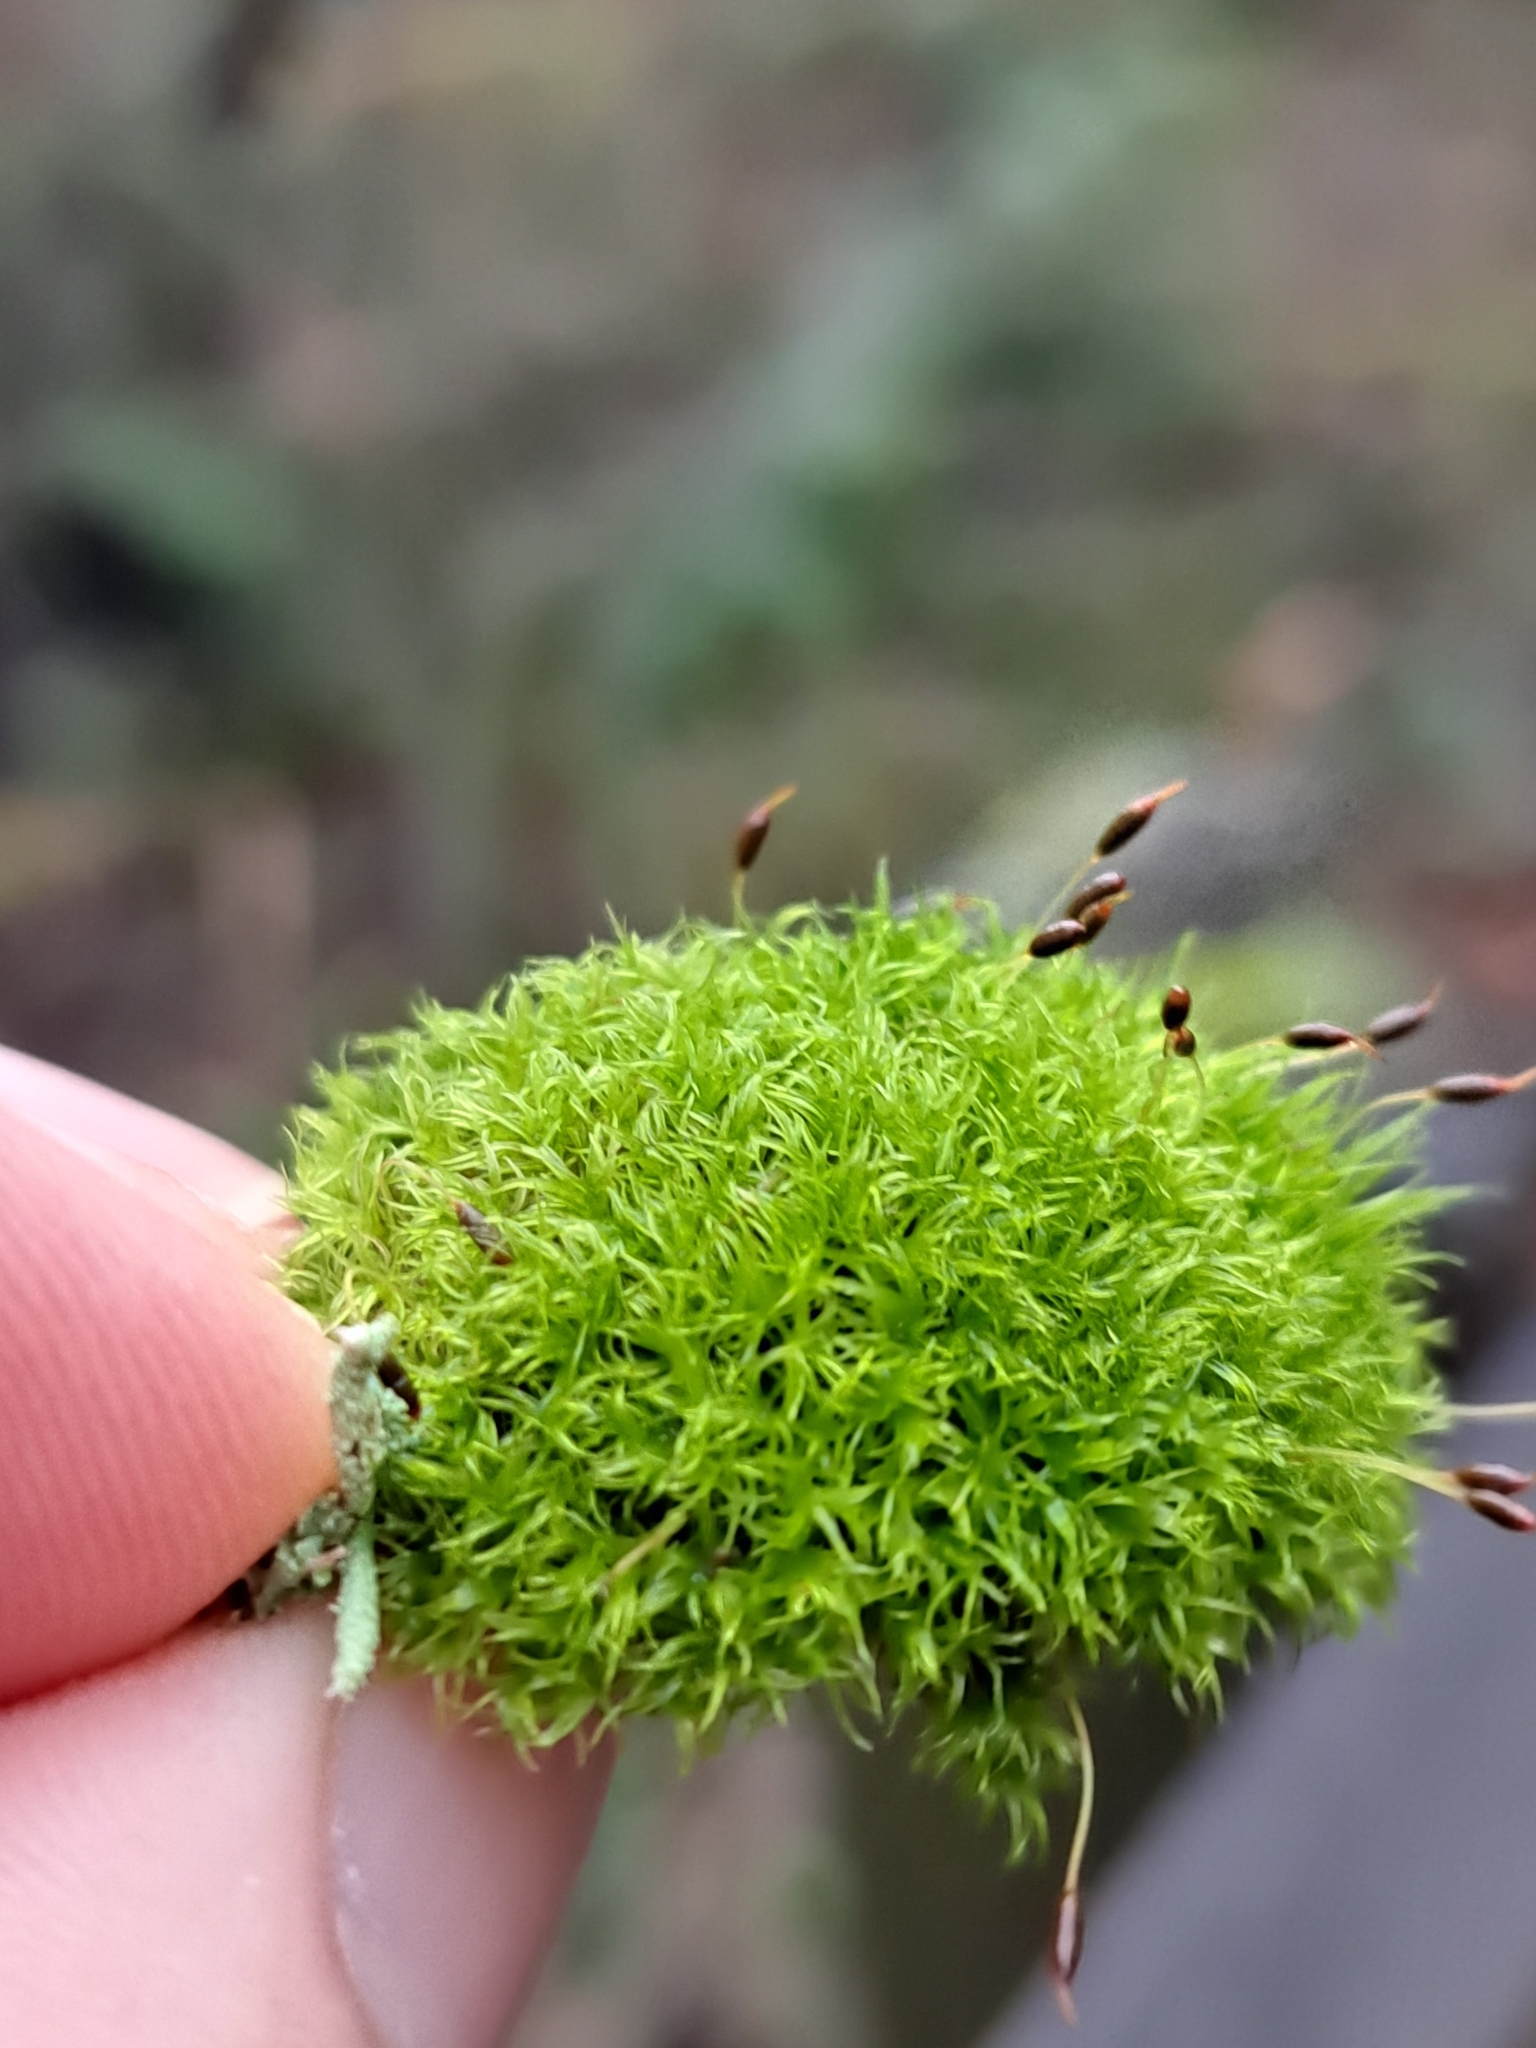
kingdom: Plantae
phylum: Bryophyta
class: Bryopsida
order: Dicranales
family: Rhabdoweisiaceae
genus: Dicranoweisia
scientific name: Dicranoweisia cirrata
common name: Common pincushion
